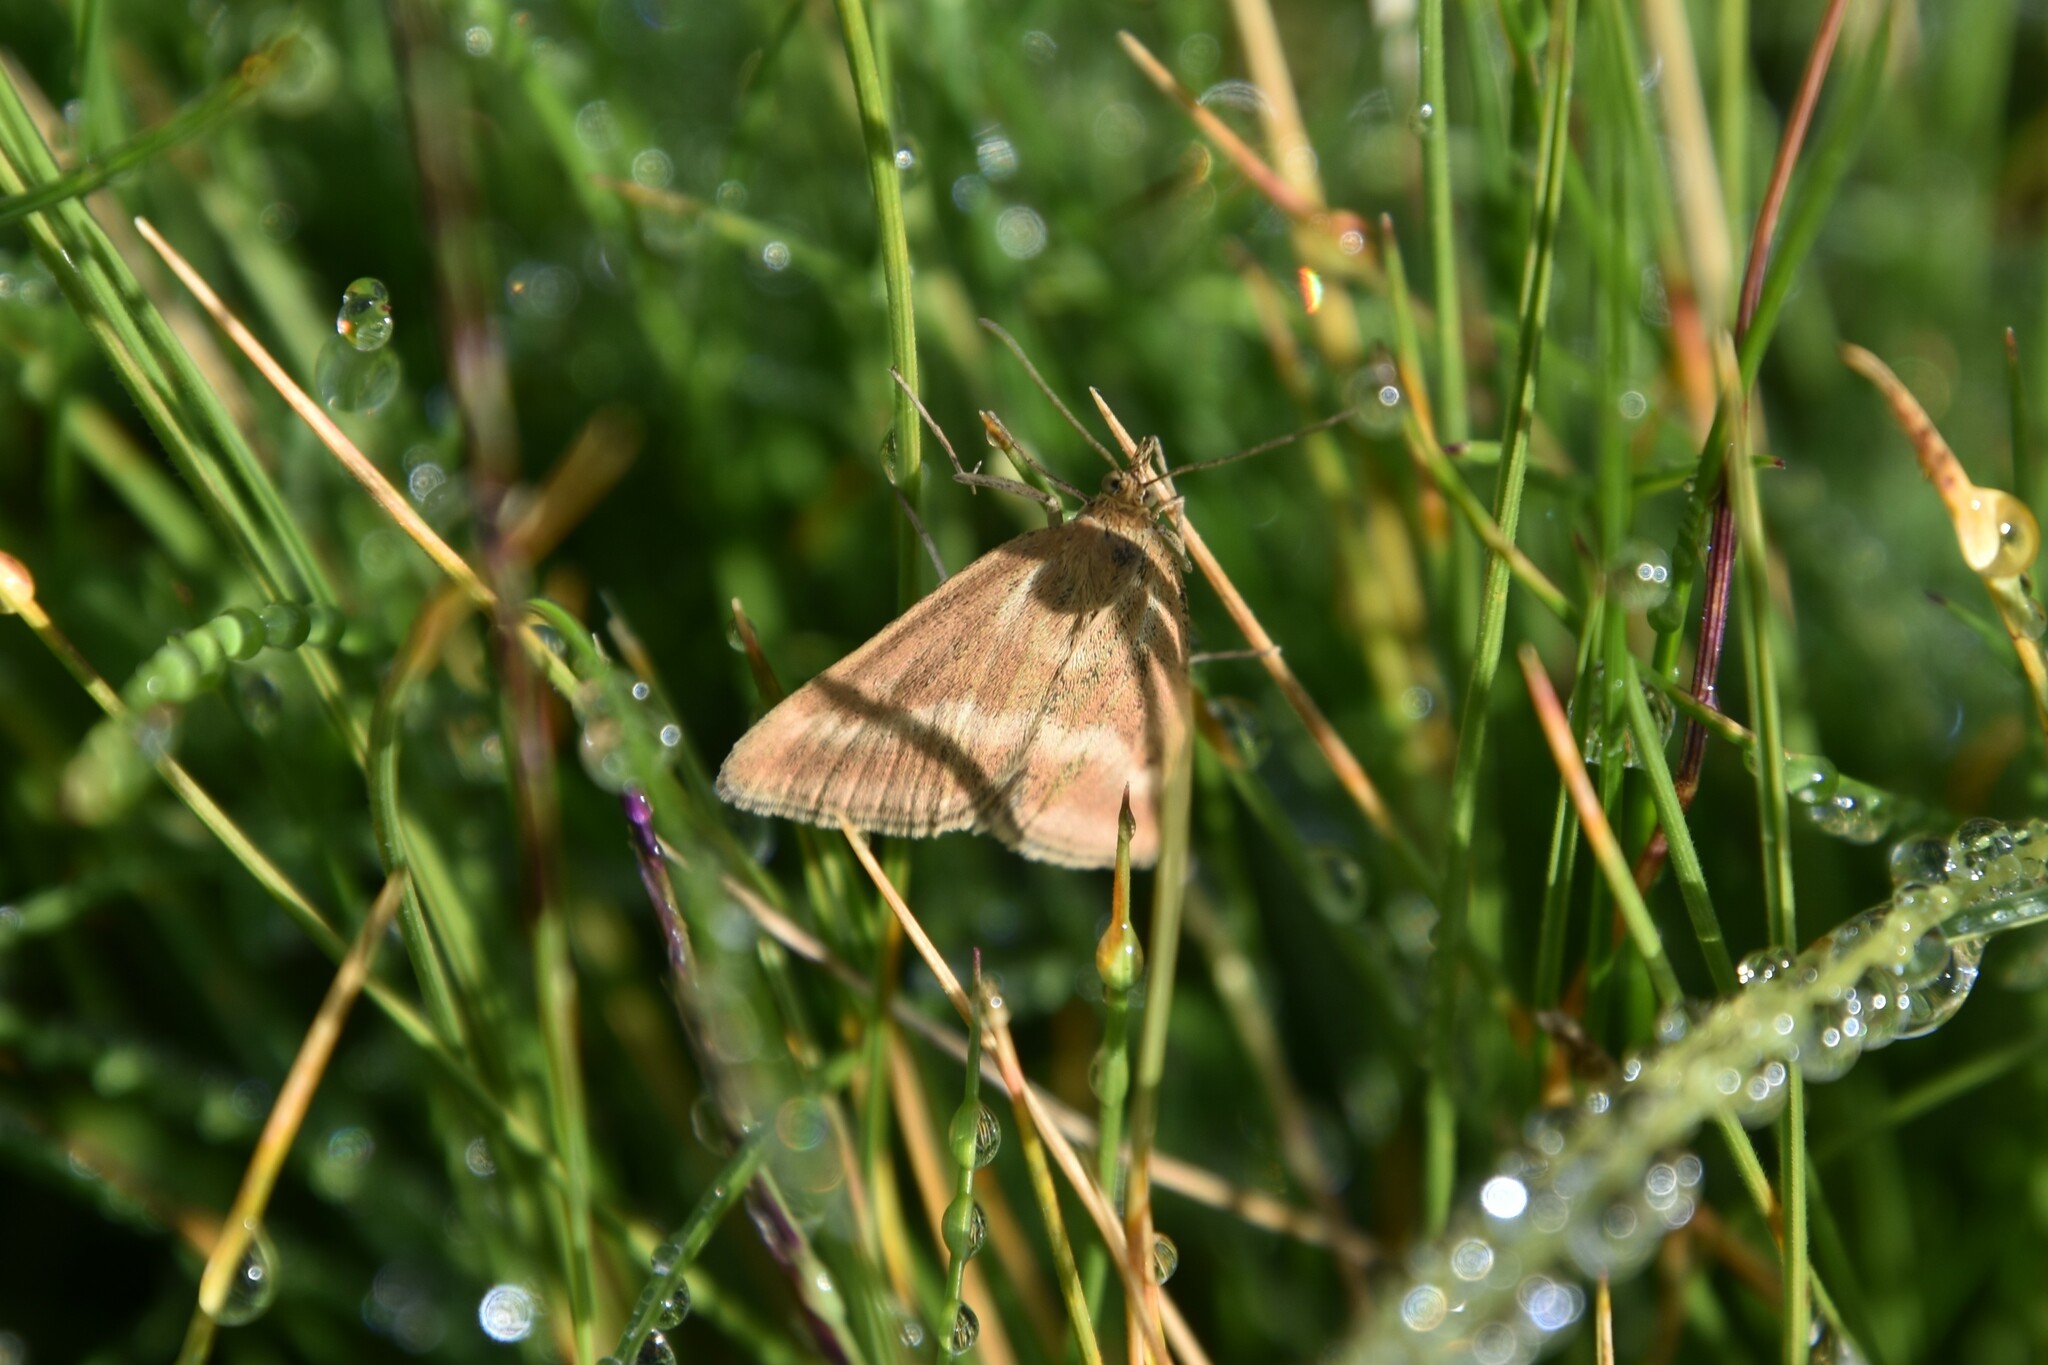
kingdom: Animalia
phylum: Arthropoda
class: Insecta
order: Lepidoptera
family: Crambidae
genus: Pyrausta
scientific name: Pyrausta aerealis
